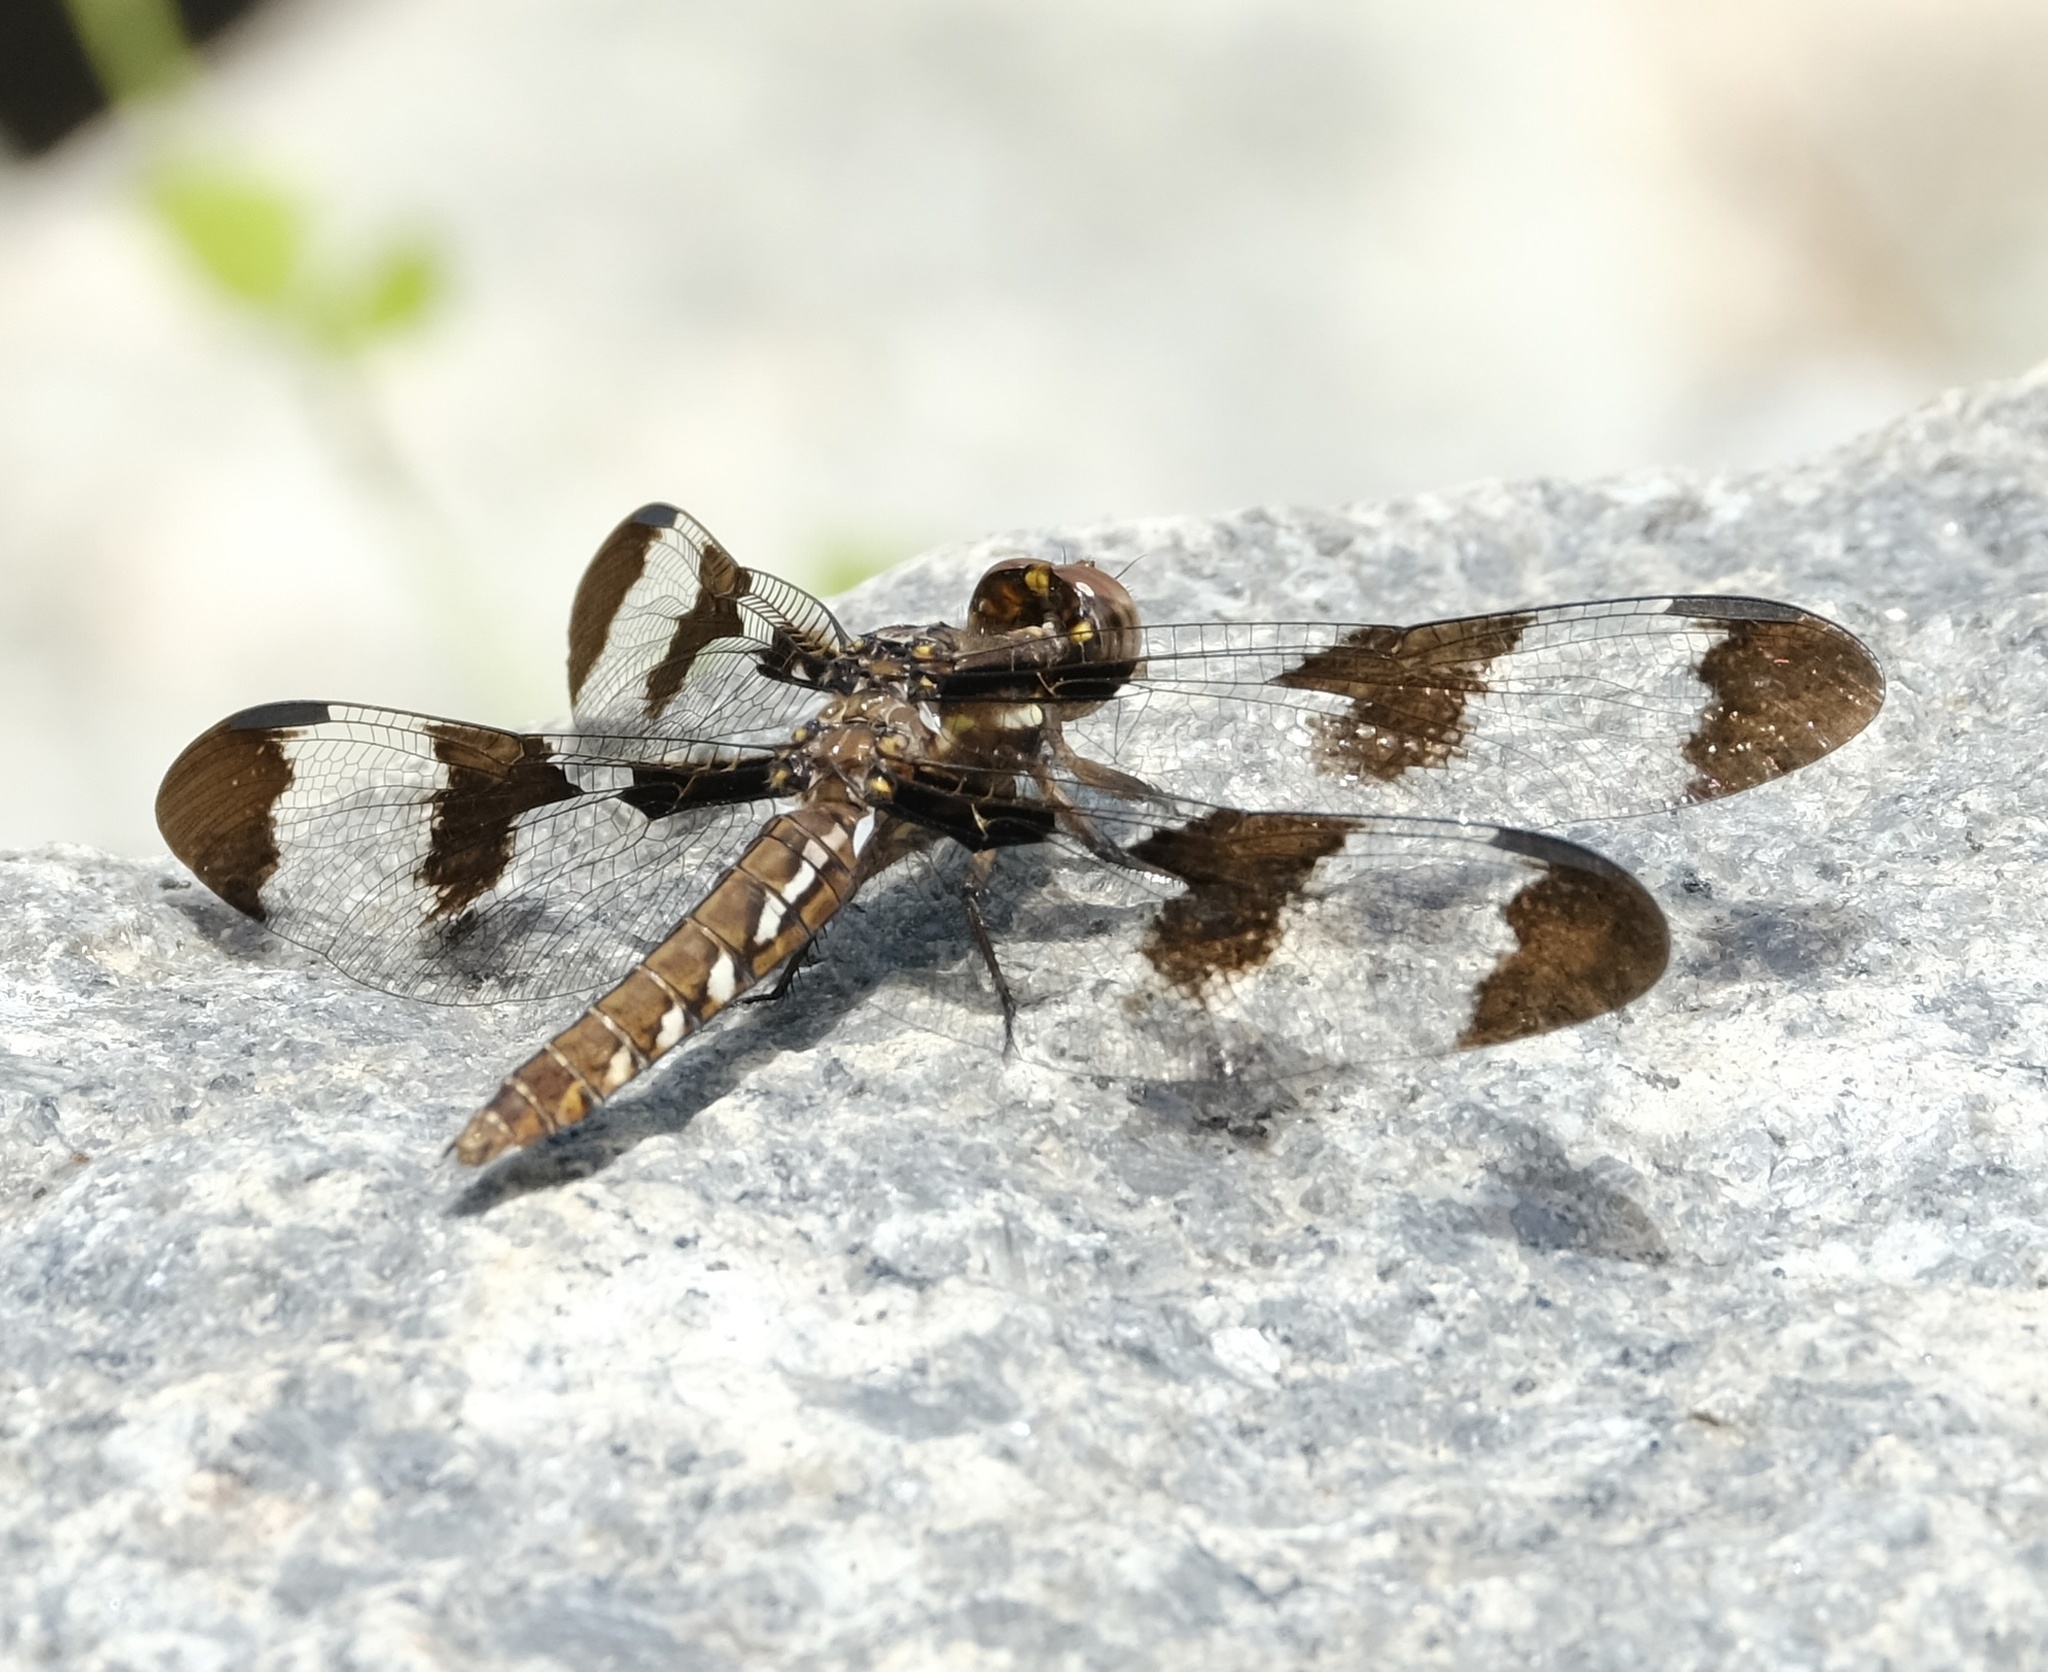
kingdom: Animalia
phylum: Arthropoda
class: Insecta
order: Odonata
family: Libellulidae
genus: Plathemis
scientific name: Plathemis lydia
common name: Common whitetail
